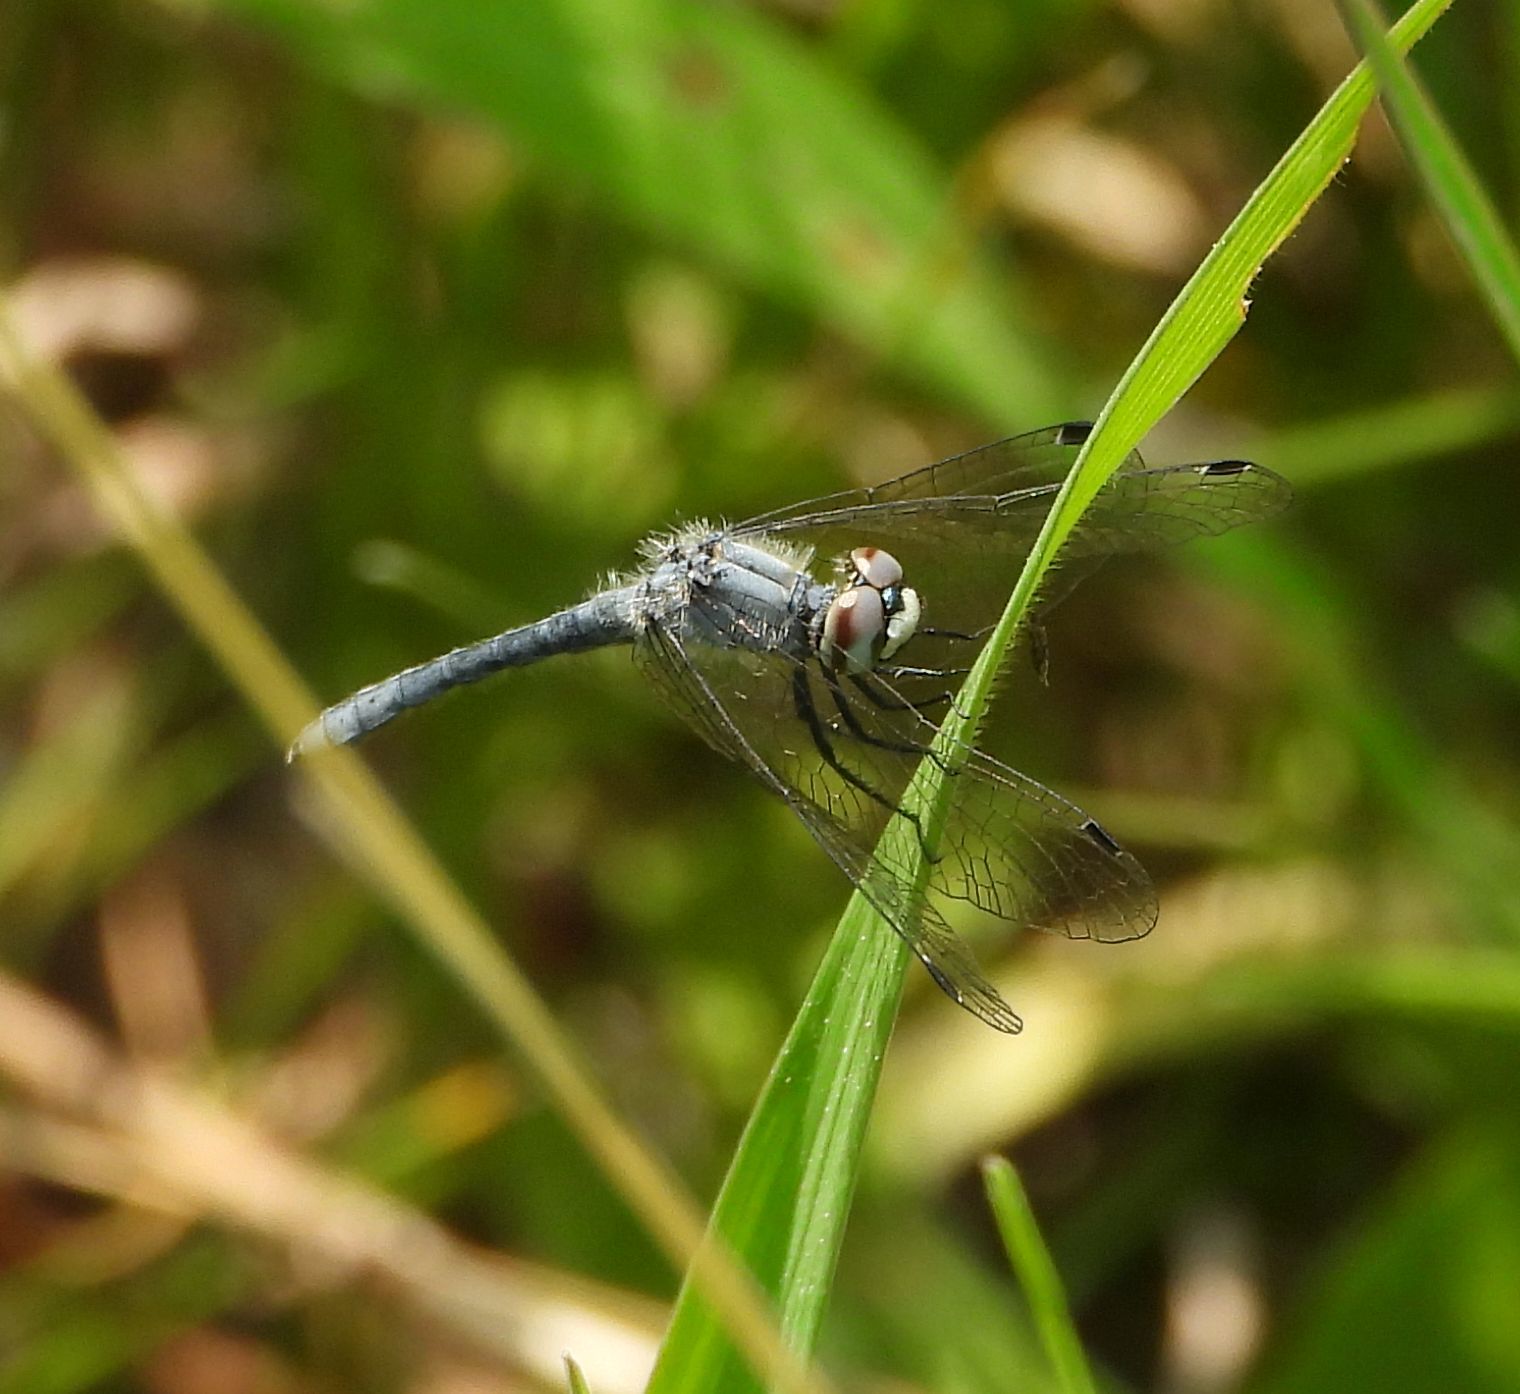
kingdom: Animalia
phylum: Arthropoda
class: Insecta
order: Odonata
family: Libellulidae
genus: Nannothemis
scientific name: Nannothemis bella
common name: Elfin skimmer
